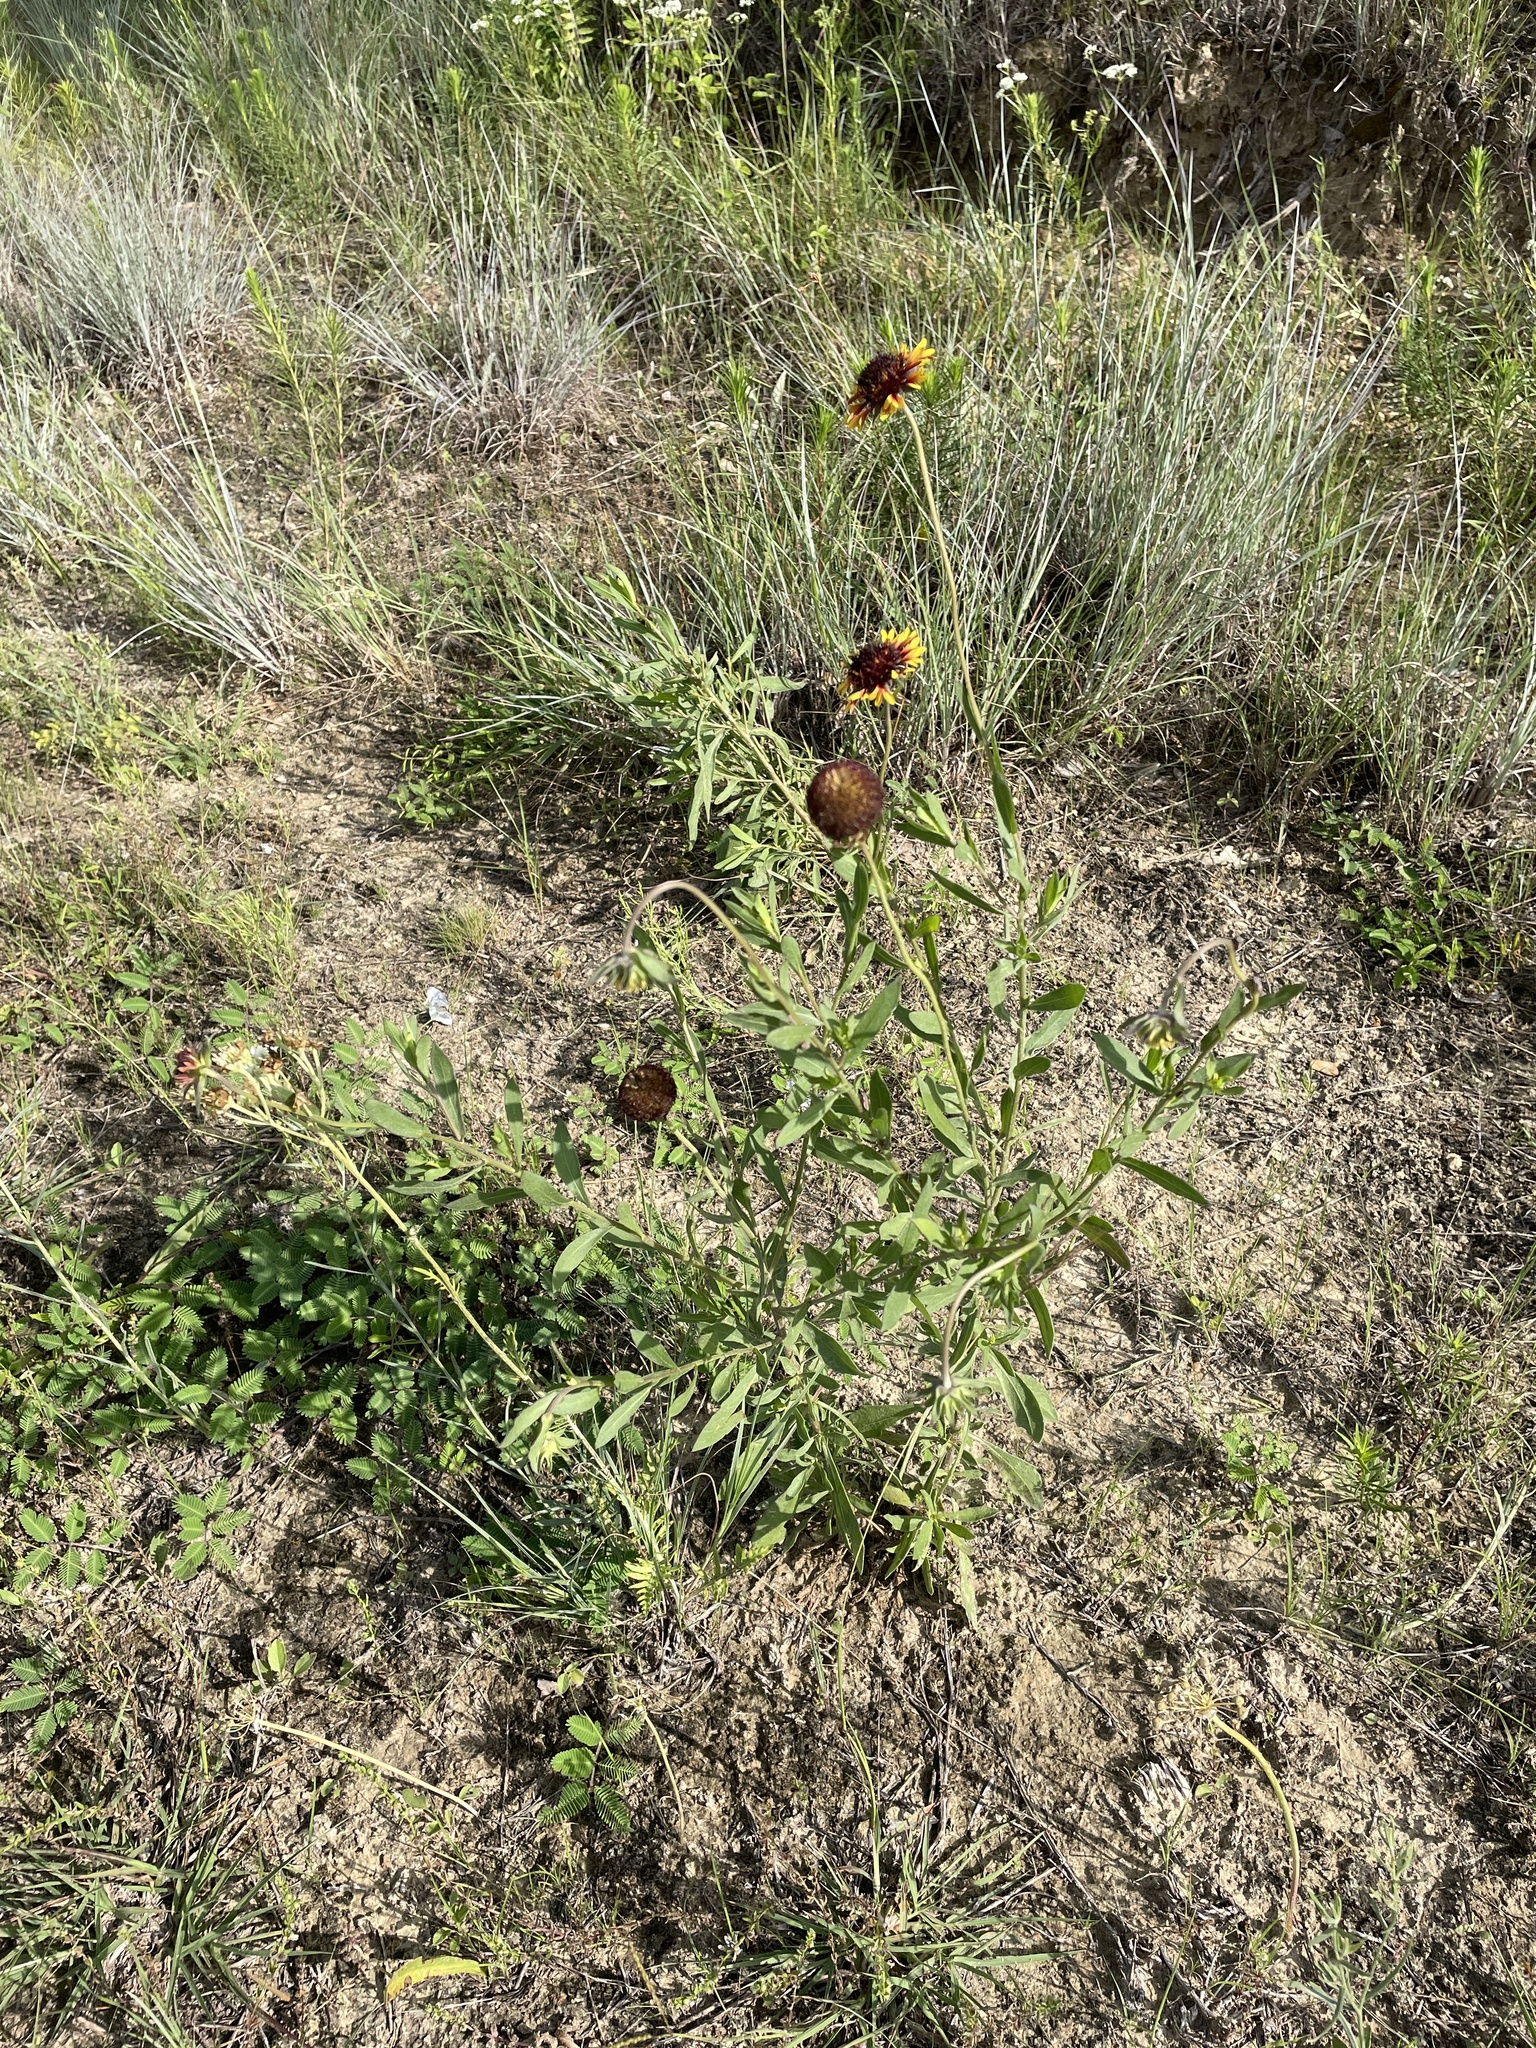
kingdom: Plantae
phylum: Tracheophyta
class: Magnoliopsida
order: Asterales
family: Asteraceae
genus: Gaillardia
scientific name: Gaillardia aestivalis
